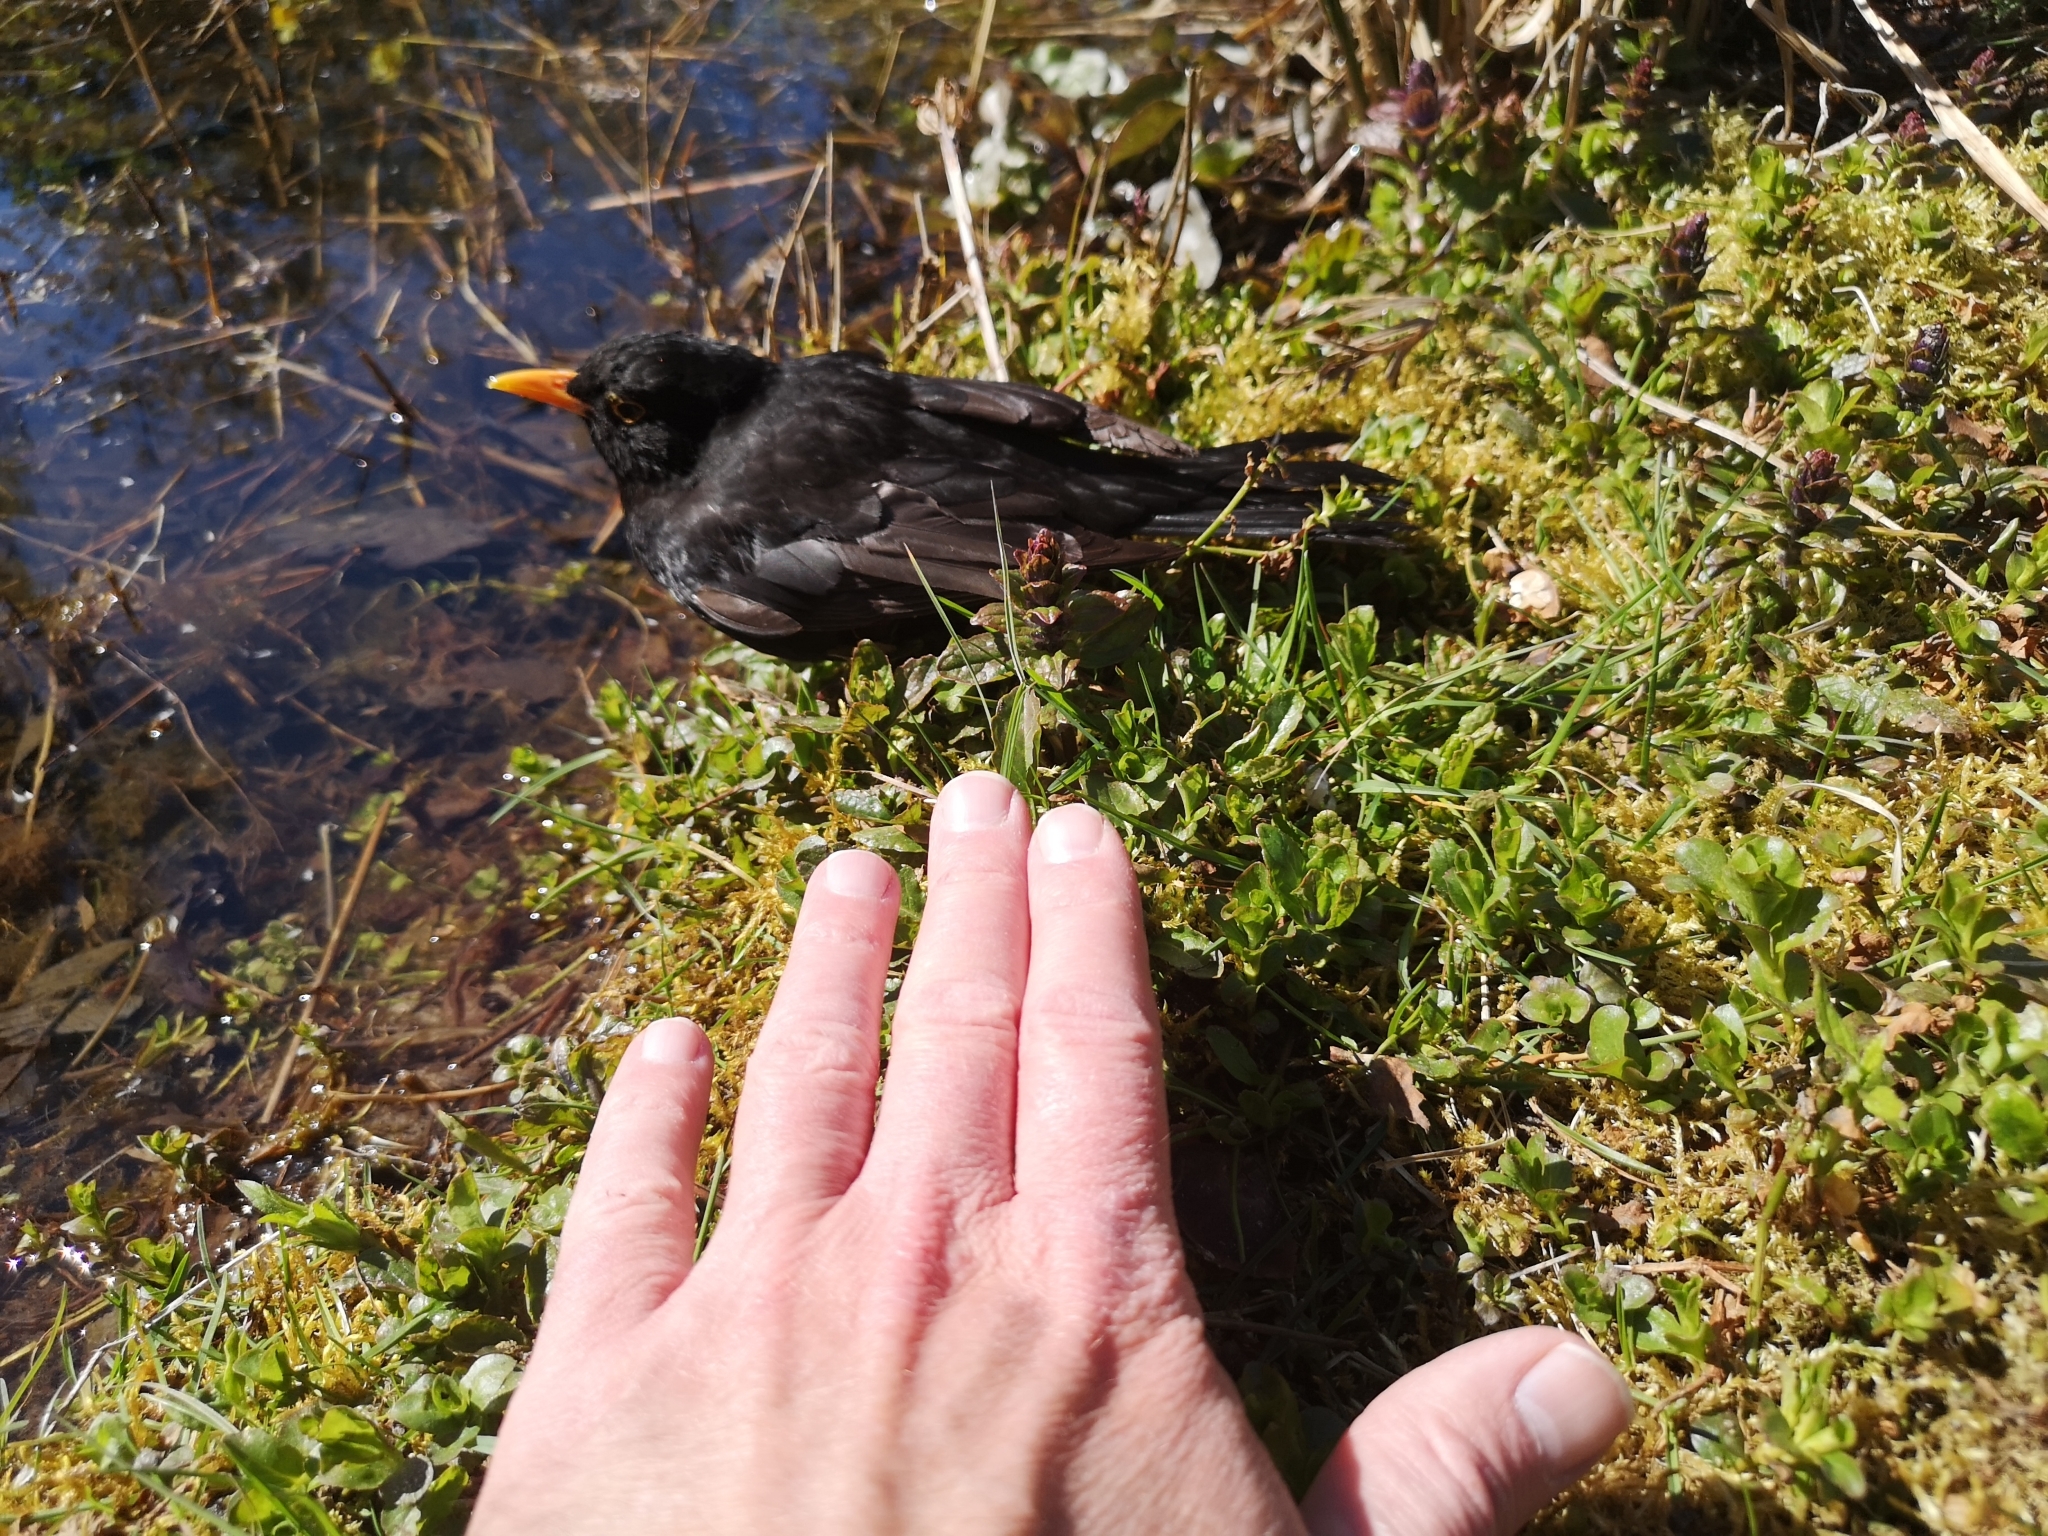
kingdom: Animalia
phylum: Chordata
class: Aves
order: Passeriformes
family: Turdidae
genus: Turdus
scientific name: Turdus merula
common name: Common blackbird
